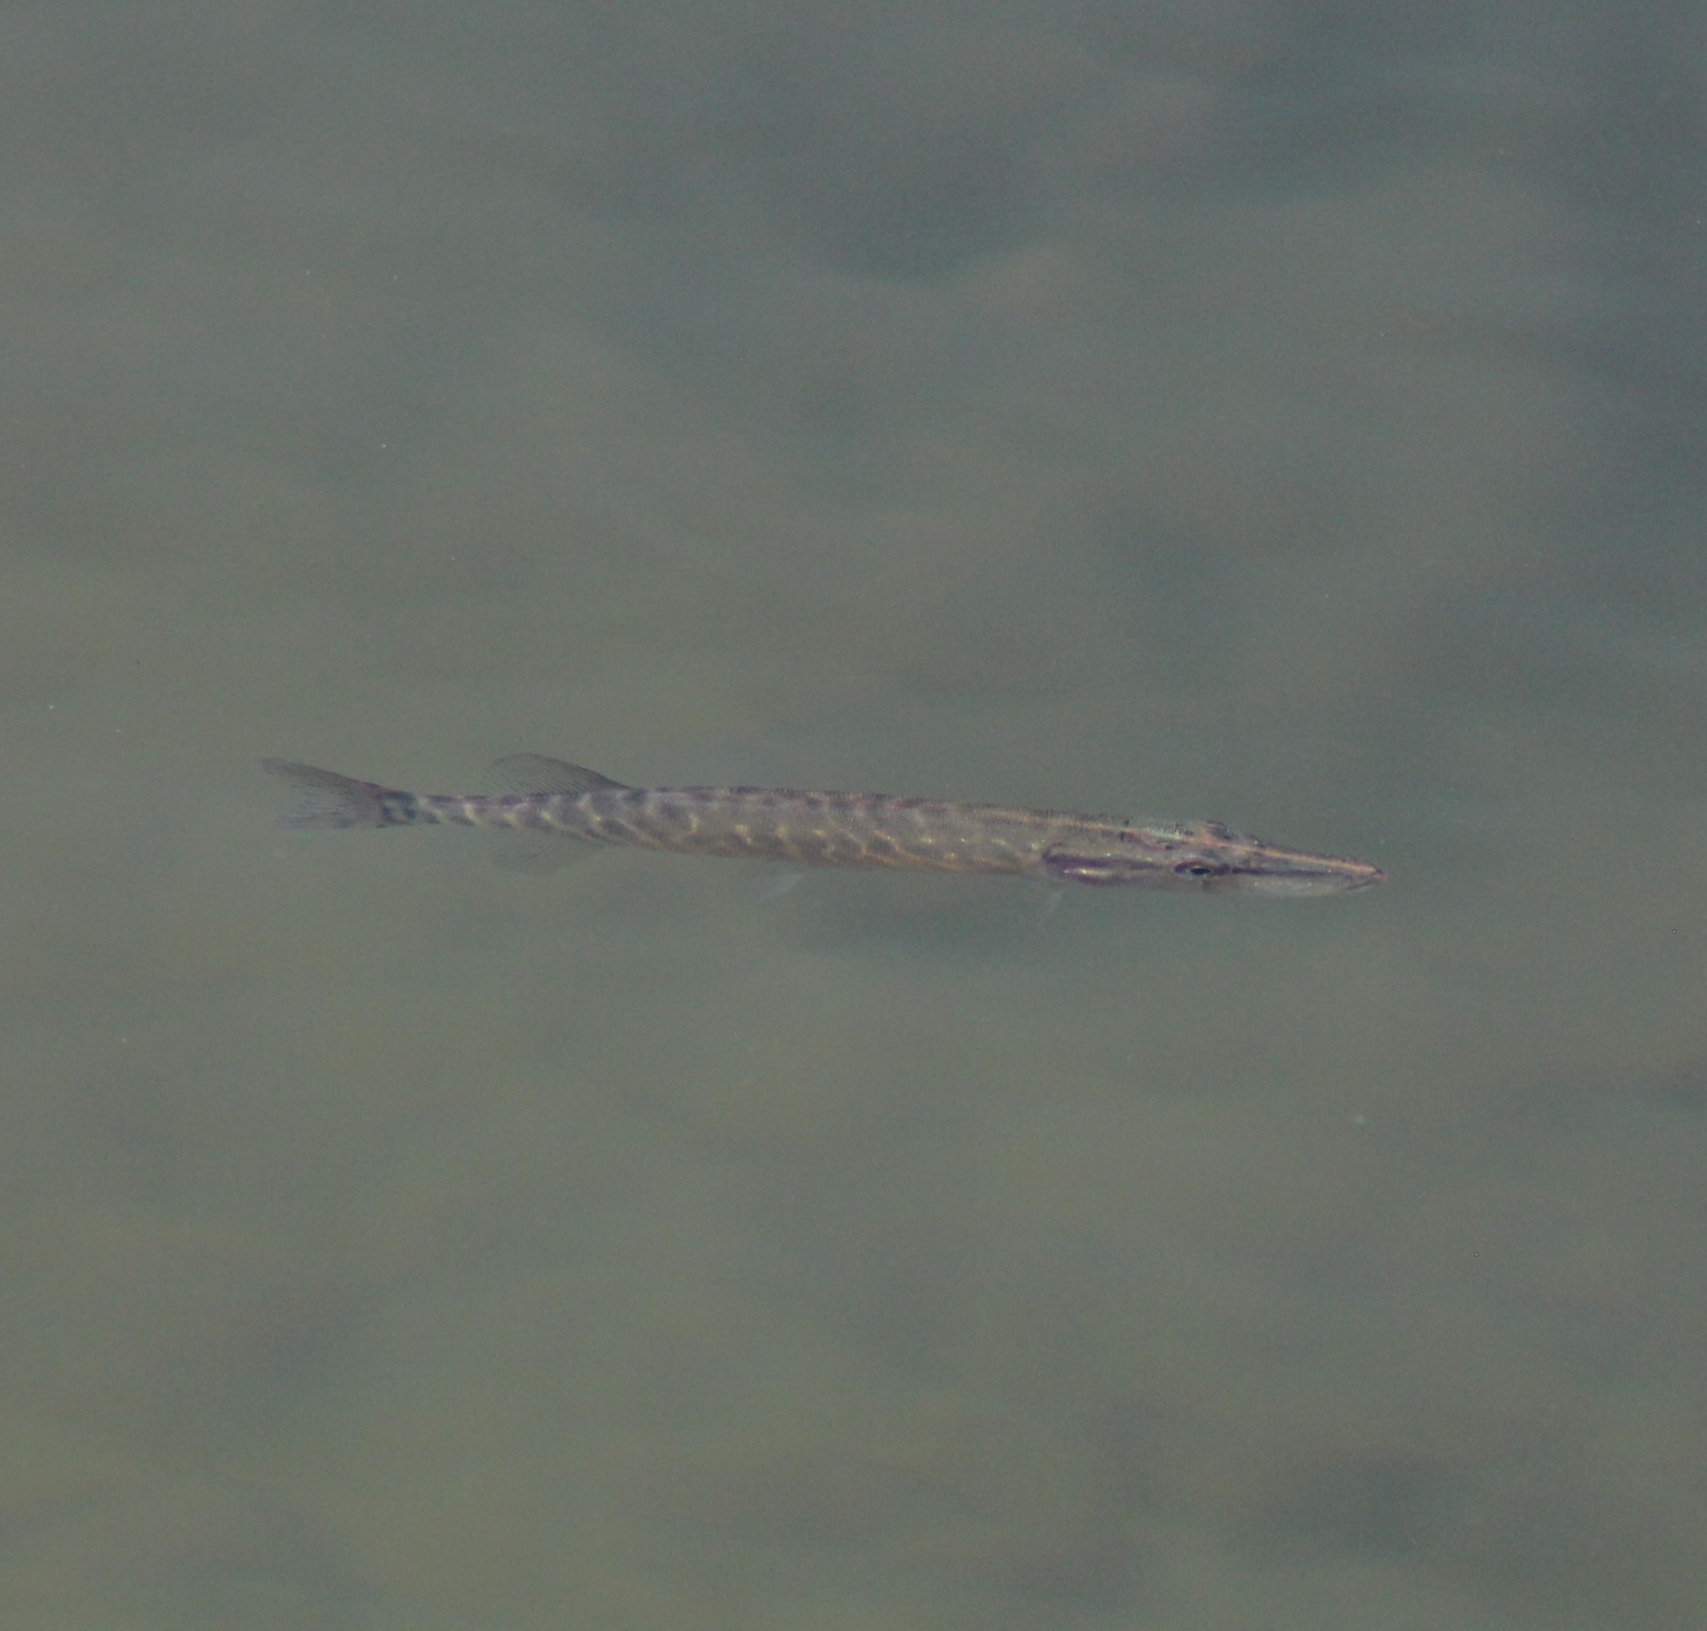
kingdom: Animalia
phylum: Chordata
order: Esociformes
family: Esocidae
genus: Esox
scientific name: Esox lucius
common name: Northern pike
